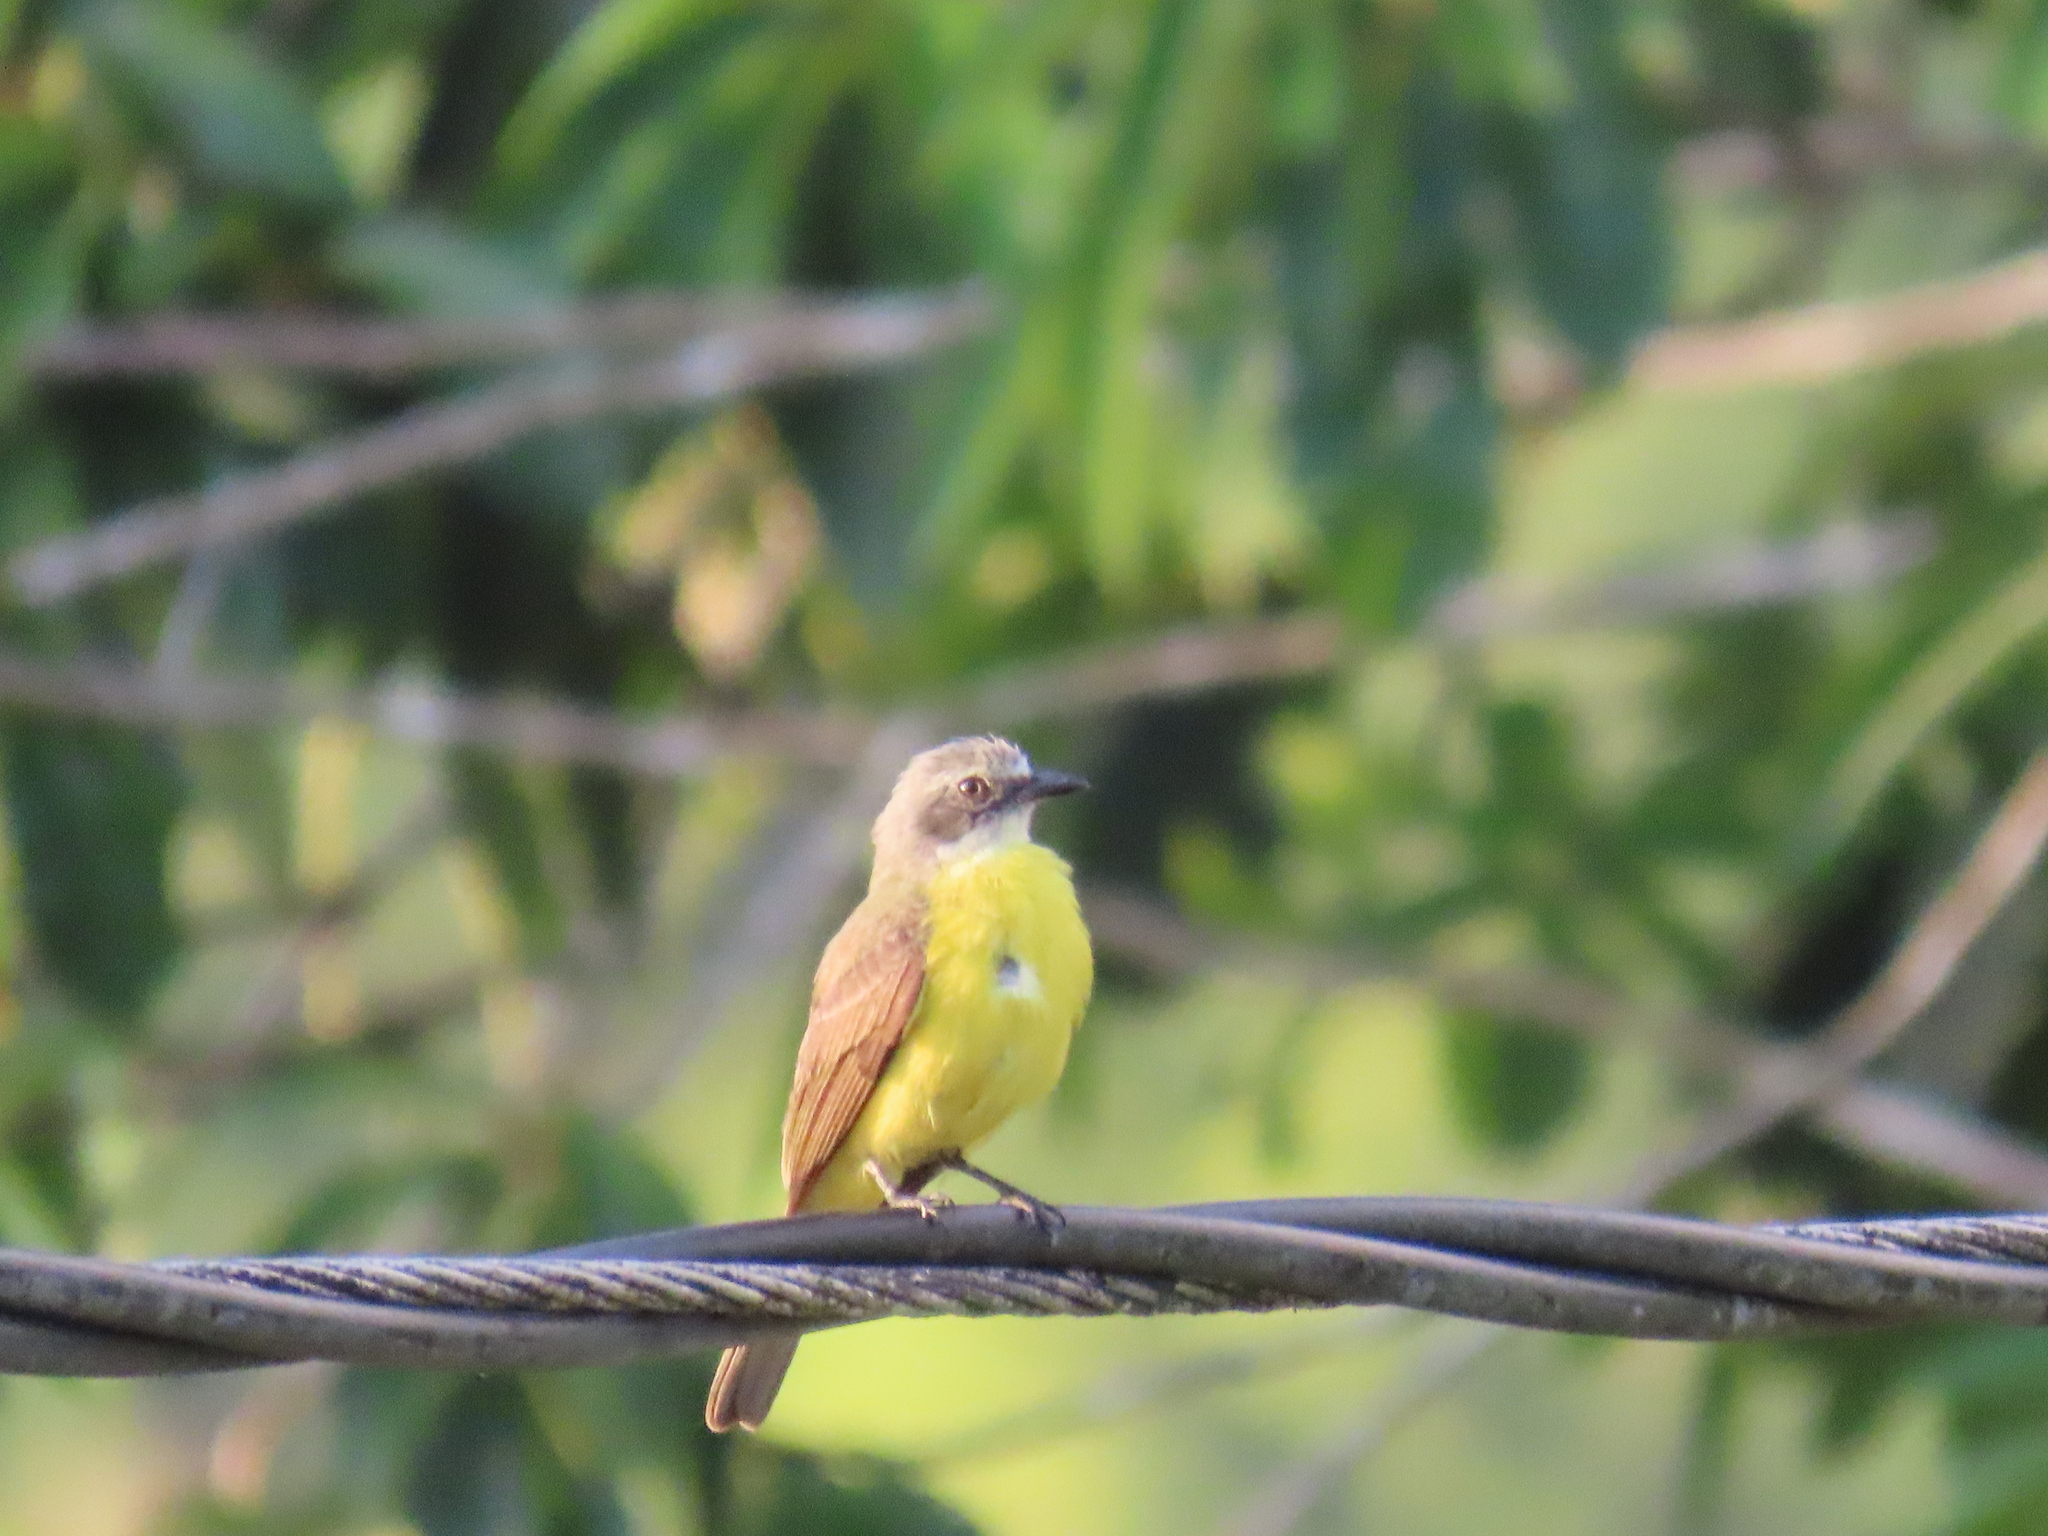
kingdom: Animalia
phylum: Chordata
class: Aves
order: Passeriformes
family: Tyrannidae
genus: Myiozetetes
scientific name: Myiozetetes granadensis
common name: Gray-capped flycatcher
